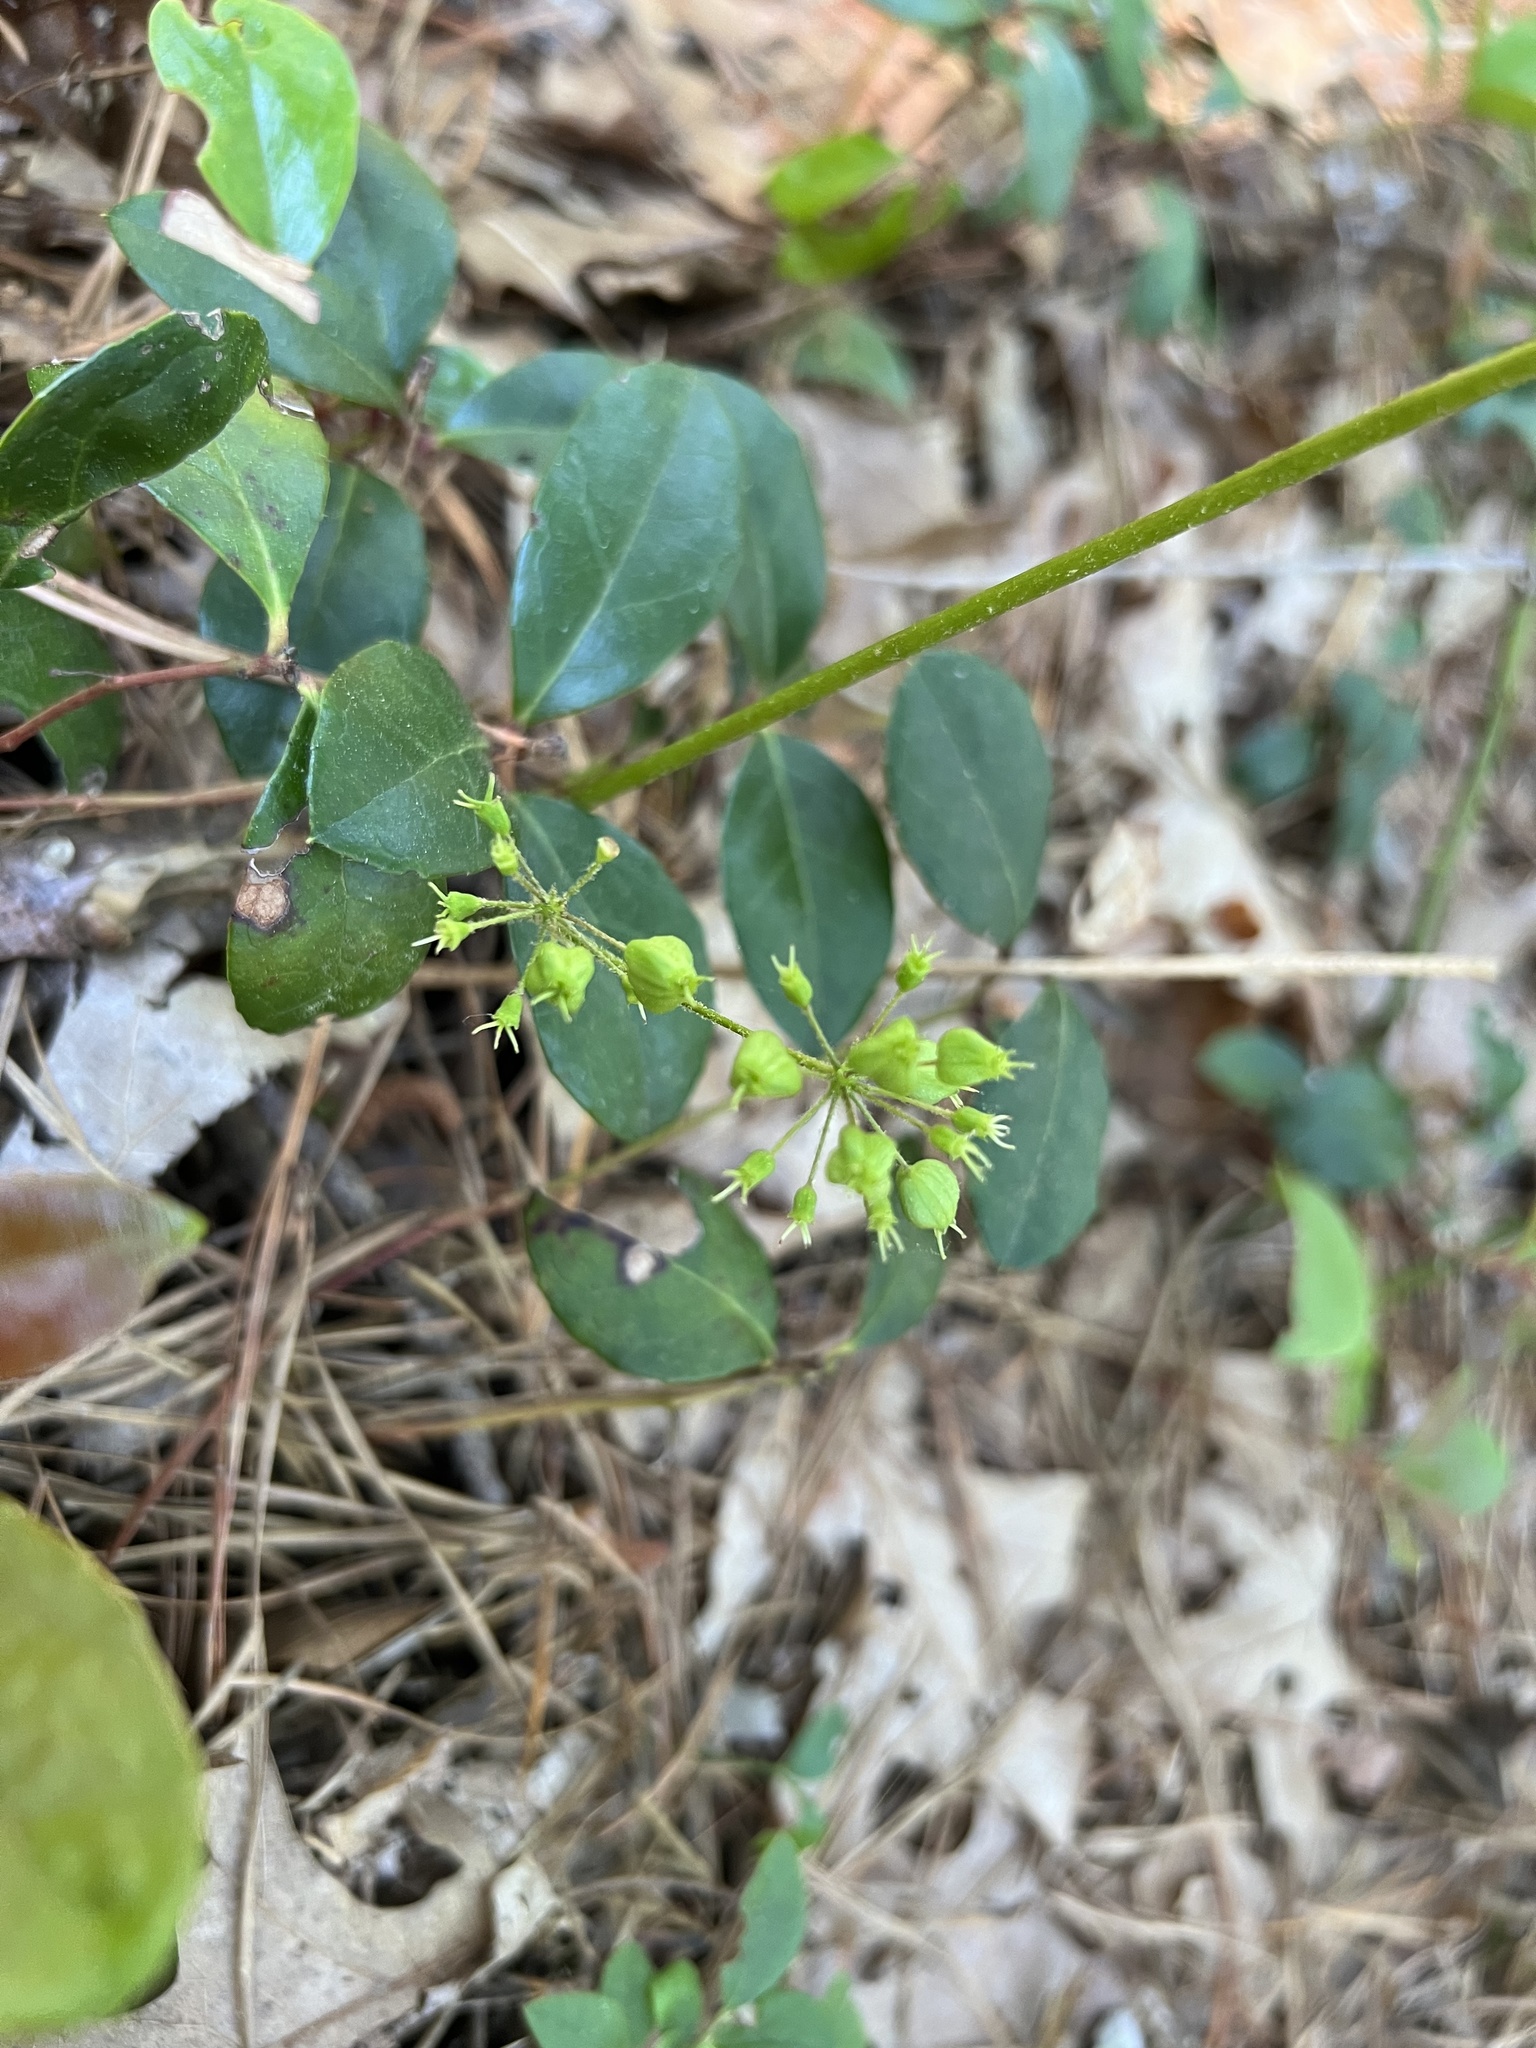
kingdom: Plantae
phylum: Tracheophyta
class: Magnoliopsida
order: Apiales
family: Araliaceae
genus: Aralia
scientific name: Aralia nudicaulis
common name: Wild sarsaparilla
